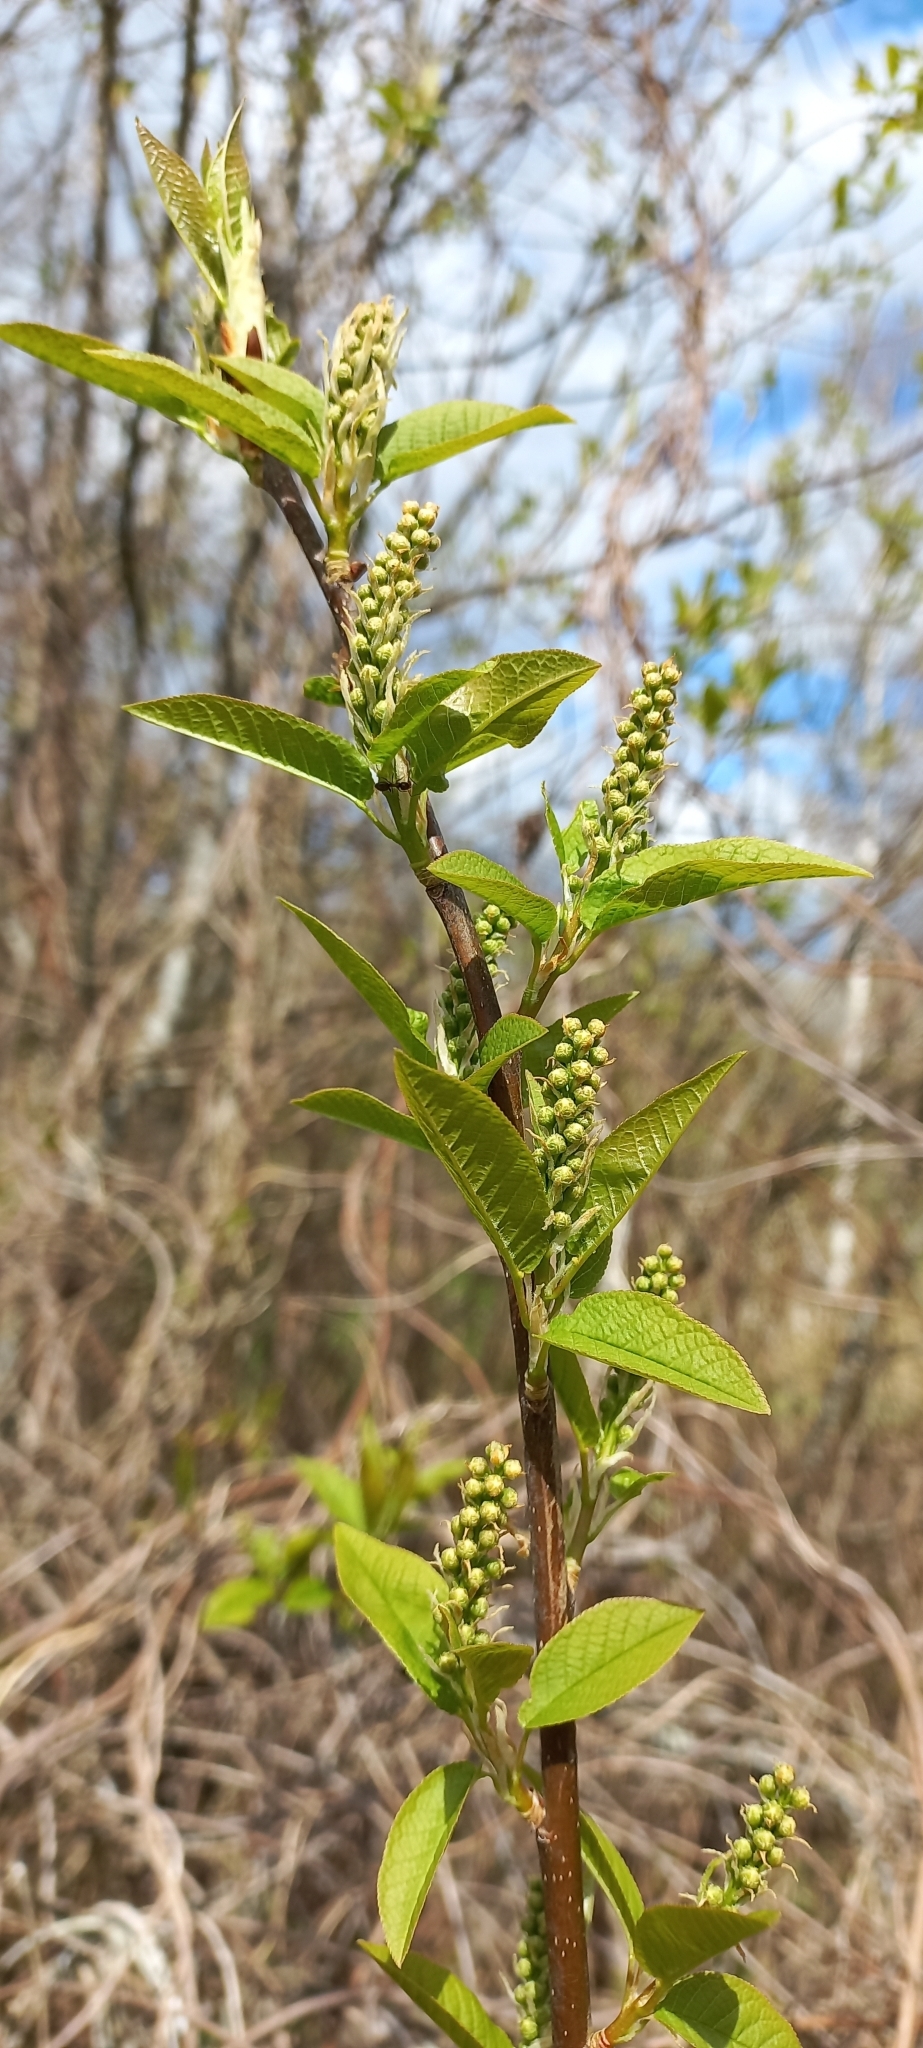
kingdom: Plantae
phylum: Tracheophyta
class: Magnoliopsida
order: Rosales
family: Rosaceae
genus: Prunus
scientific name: Prunus padus
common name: Bird cherry
